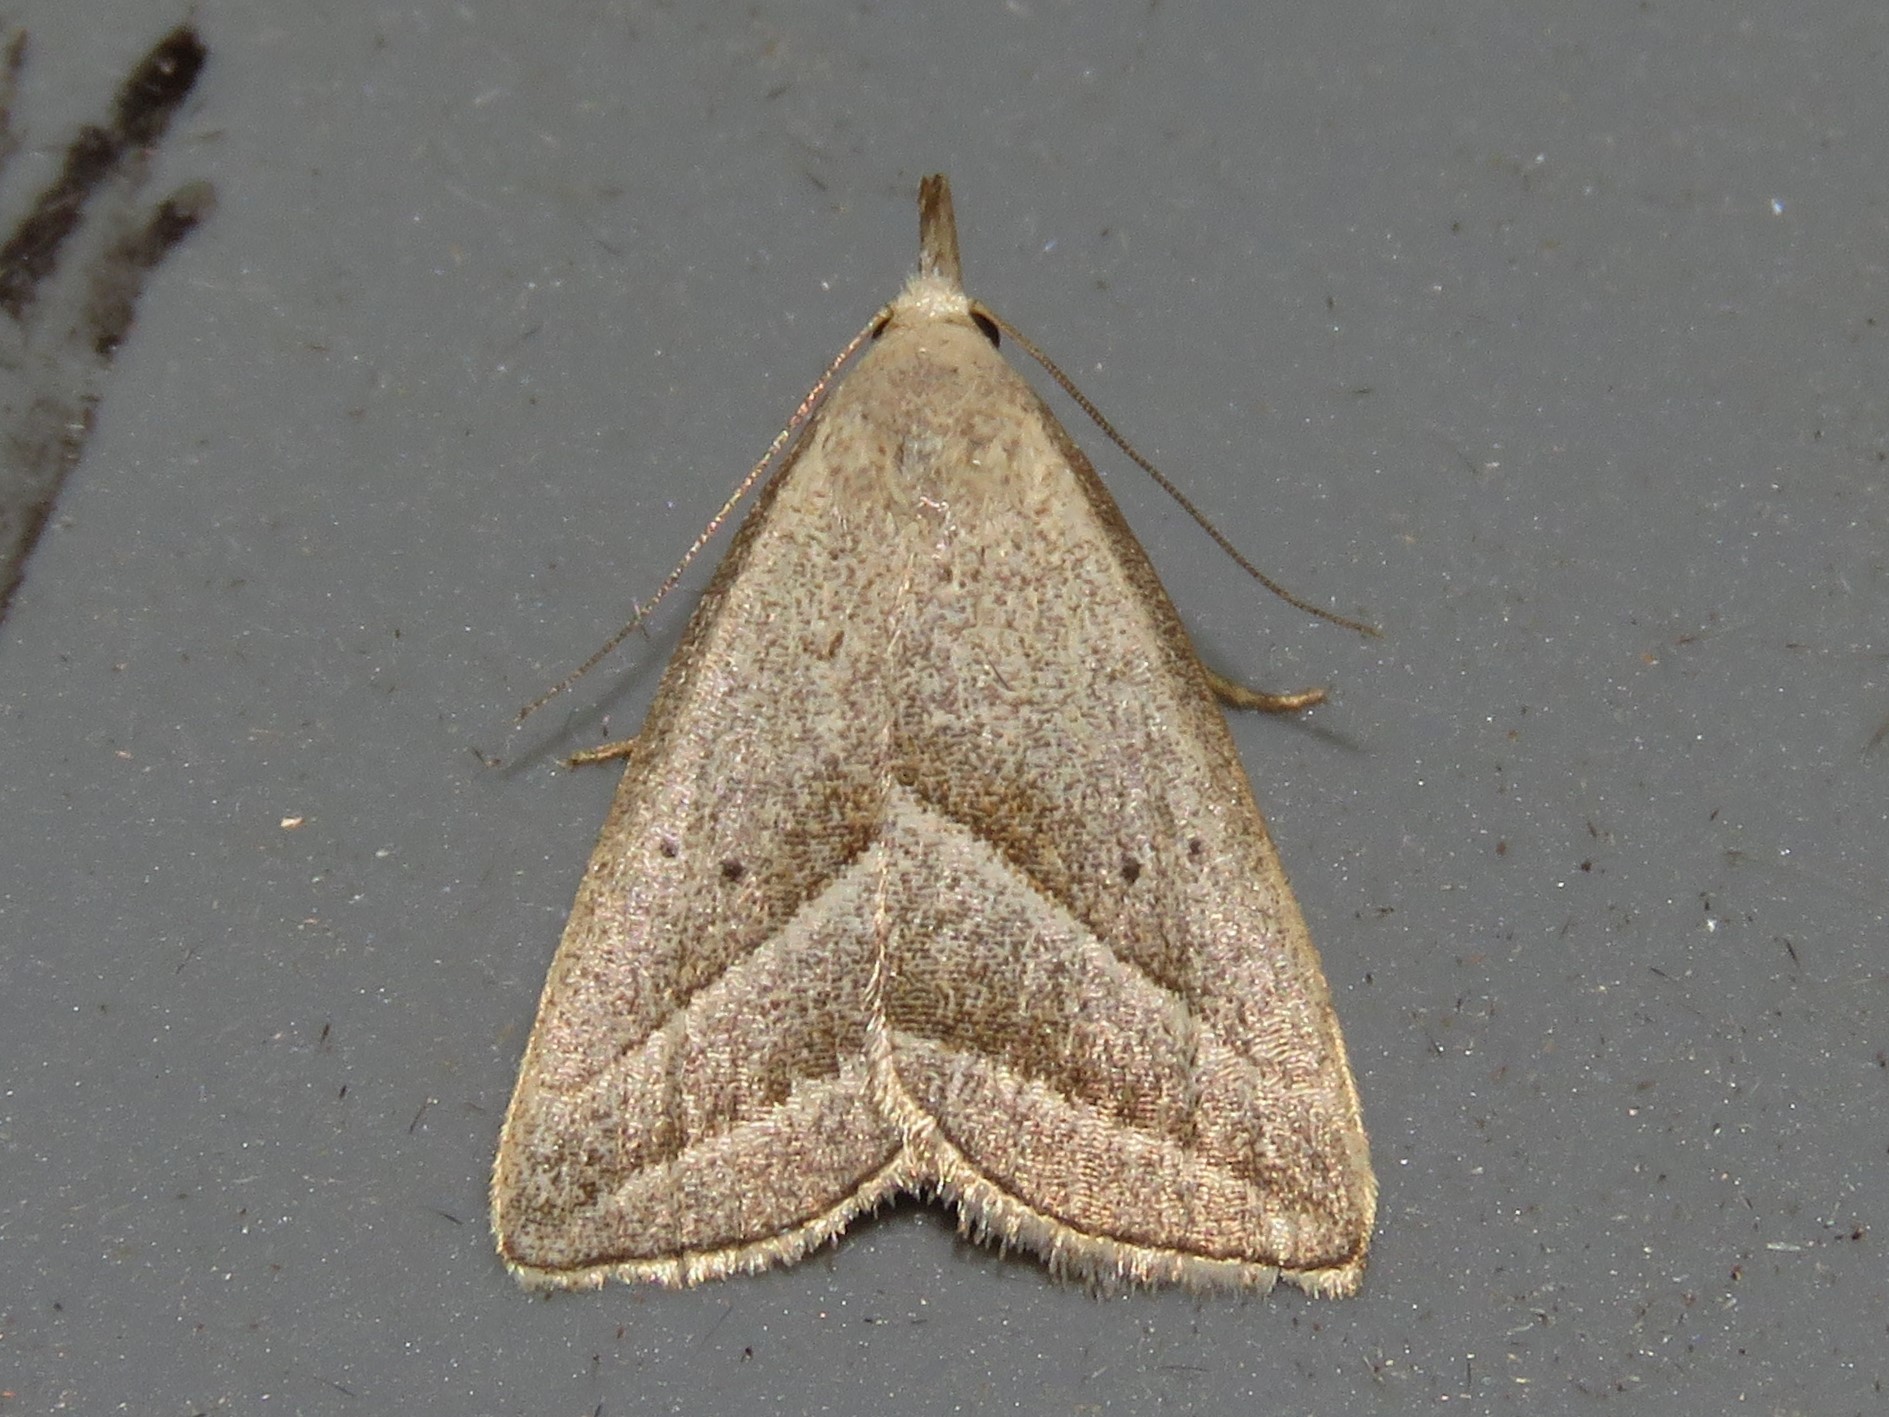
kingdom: Animalia
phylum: Arthropoda
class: Insecta
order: Lepidoptera
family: Erebidae
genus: Macrochilo
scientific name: Macrochilo absorptalis
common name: Slant-lined owlet
